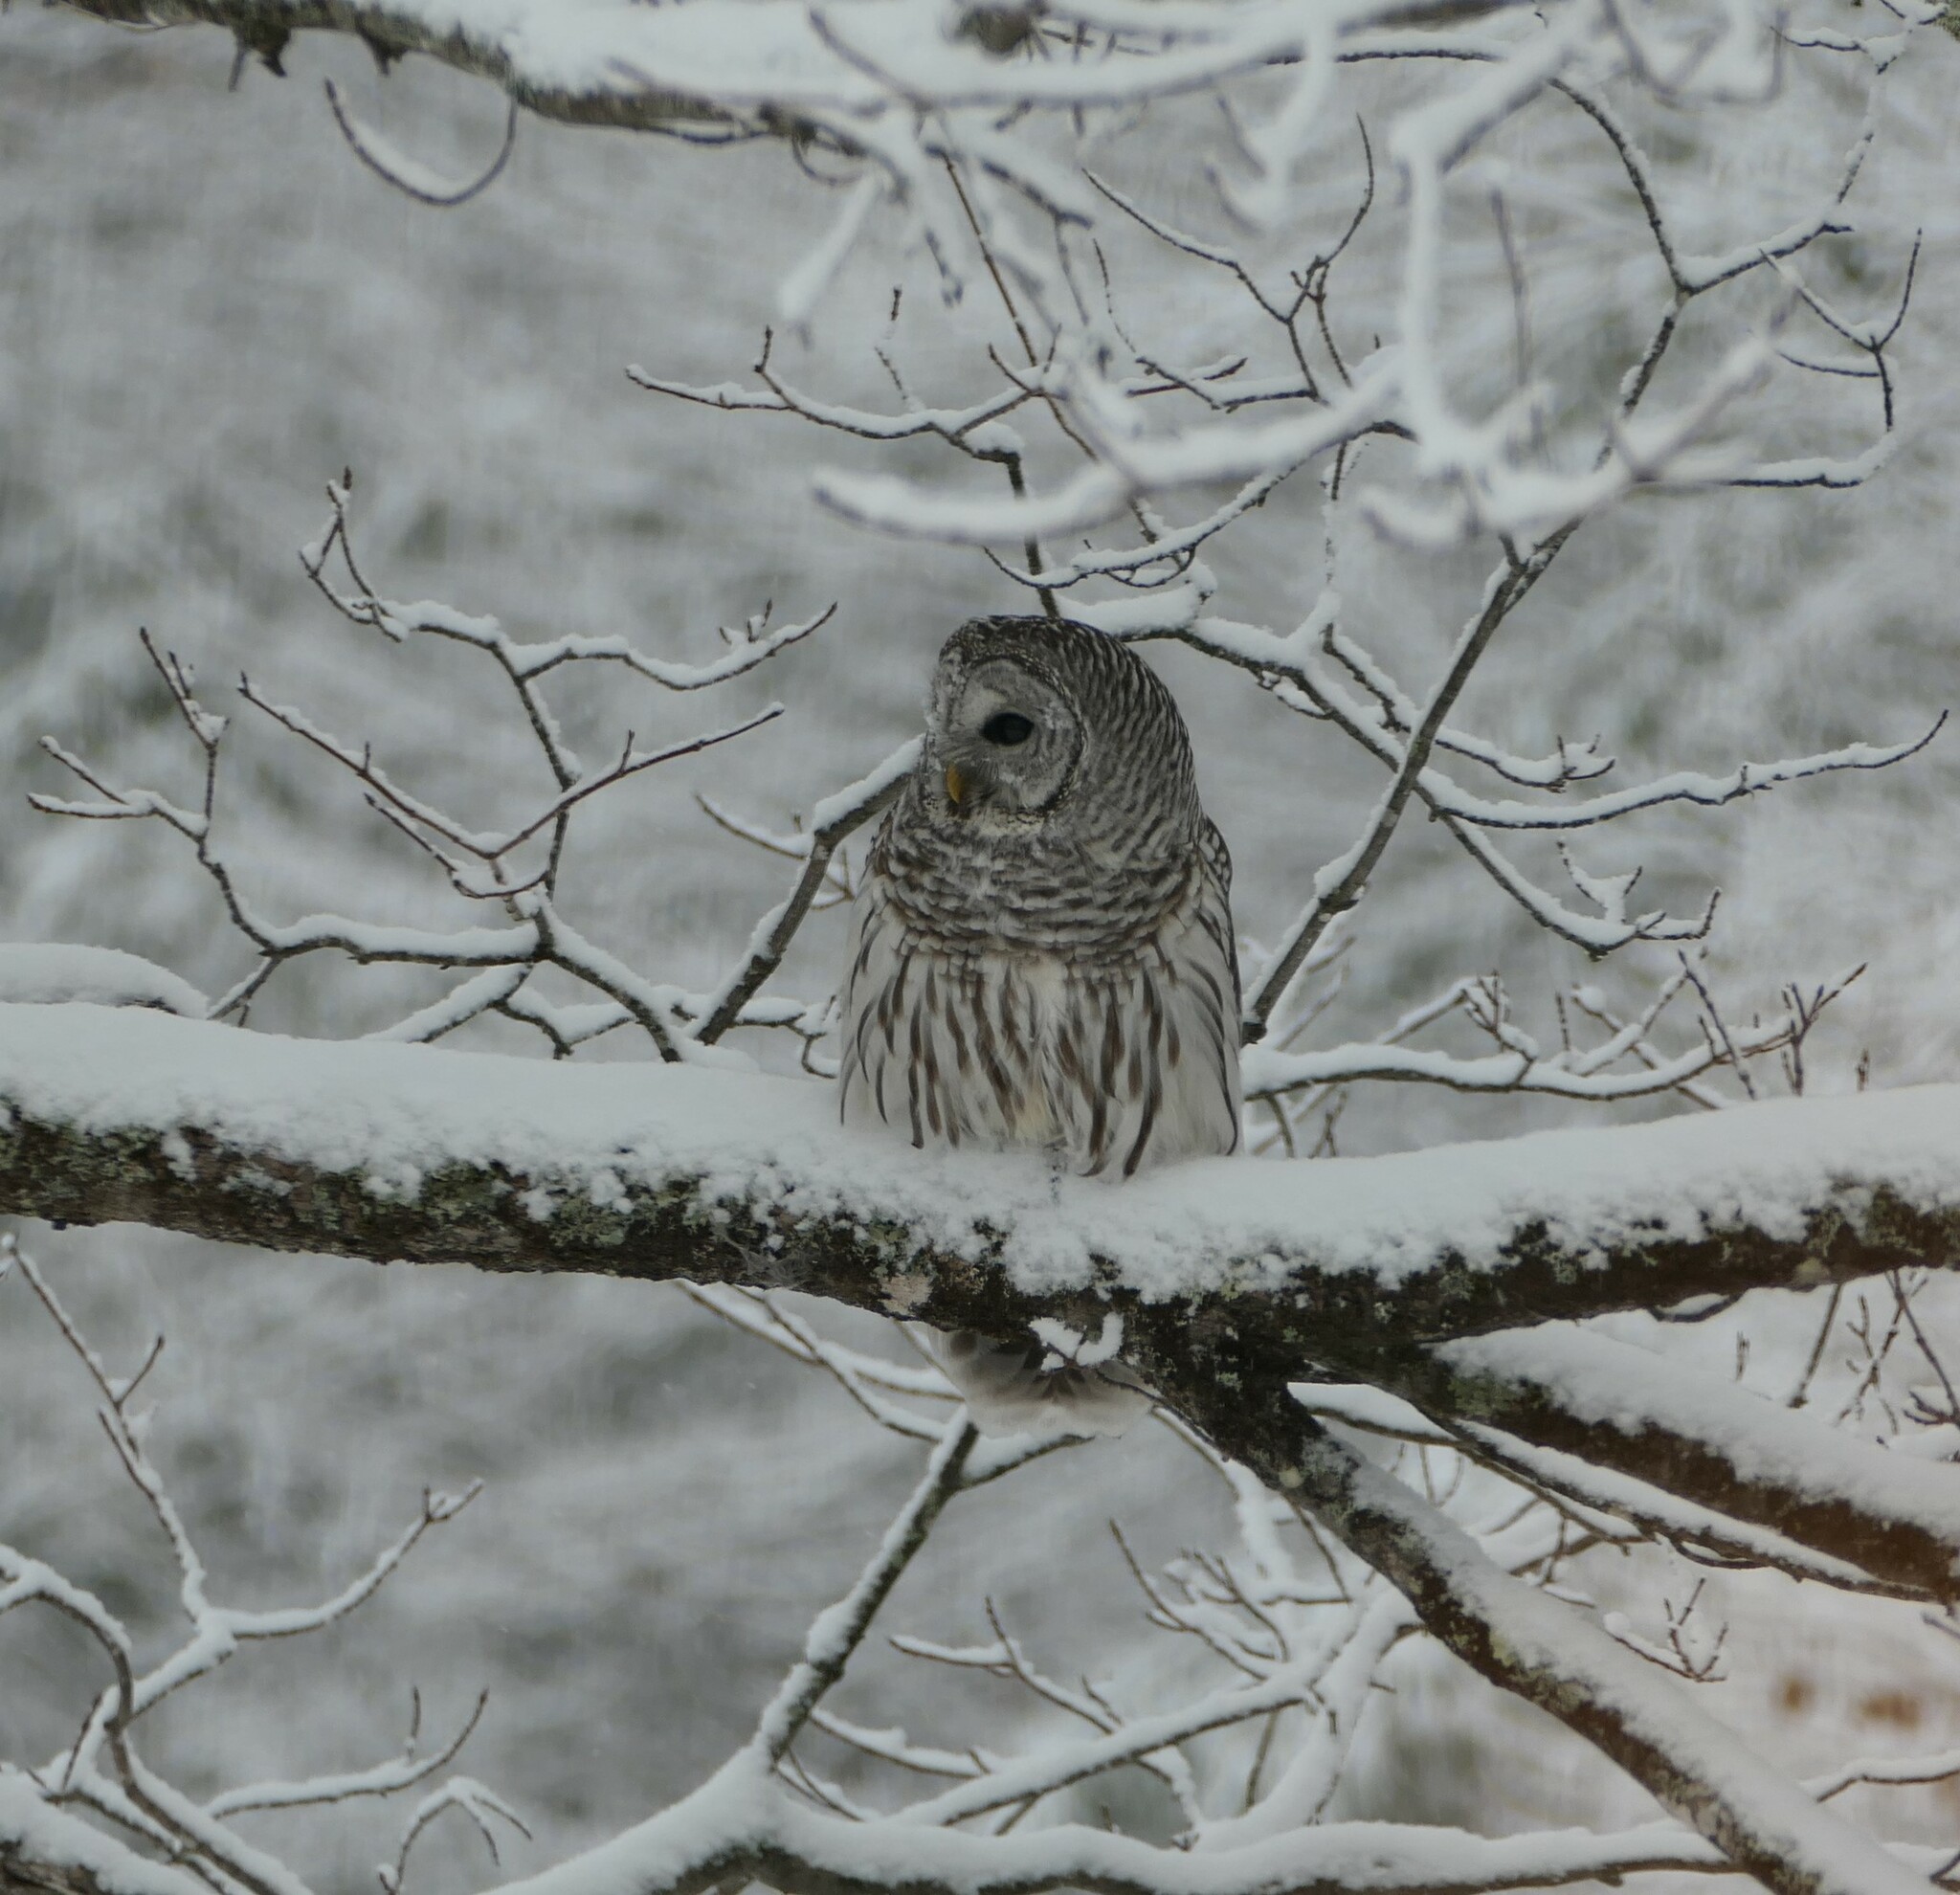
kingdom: Animalia
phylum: Chordata
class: Aves
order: Strigiformes
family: Strigidae
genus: Strix
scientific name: Strix varia
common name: Barred owl
